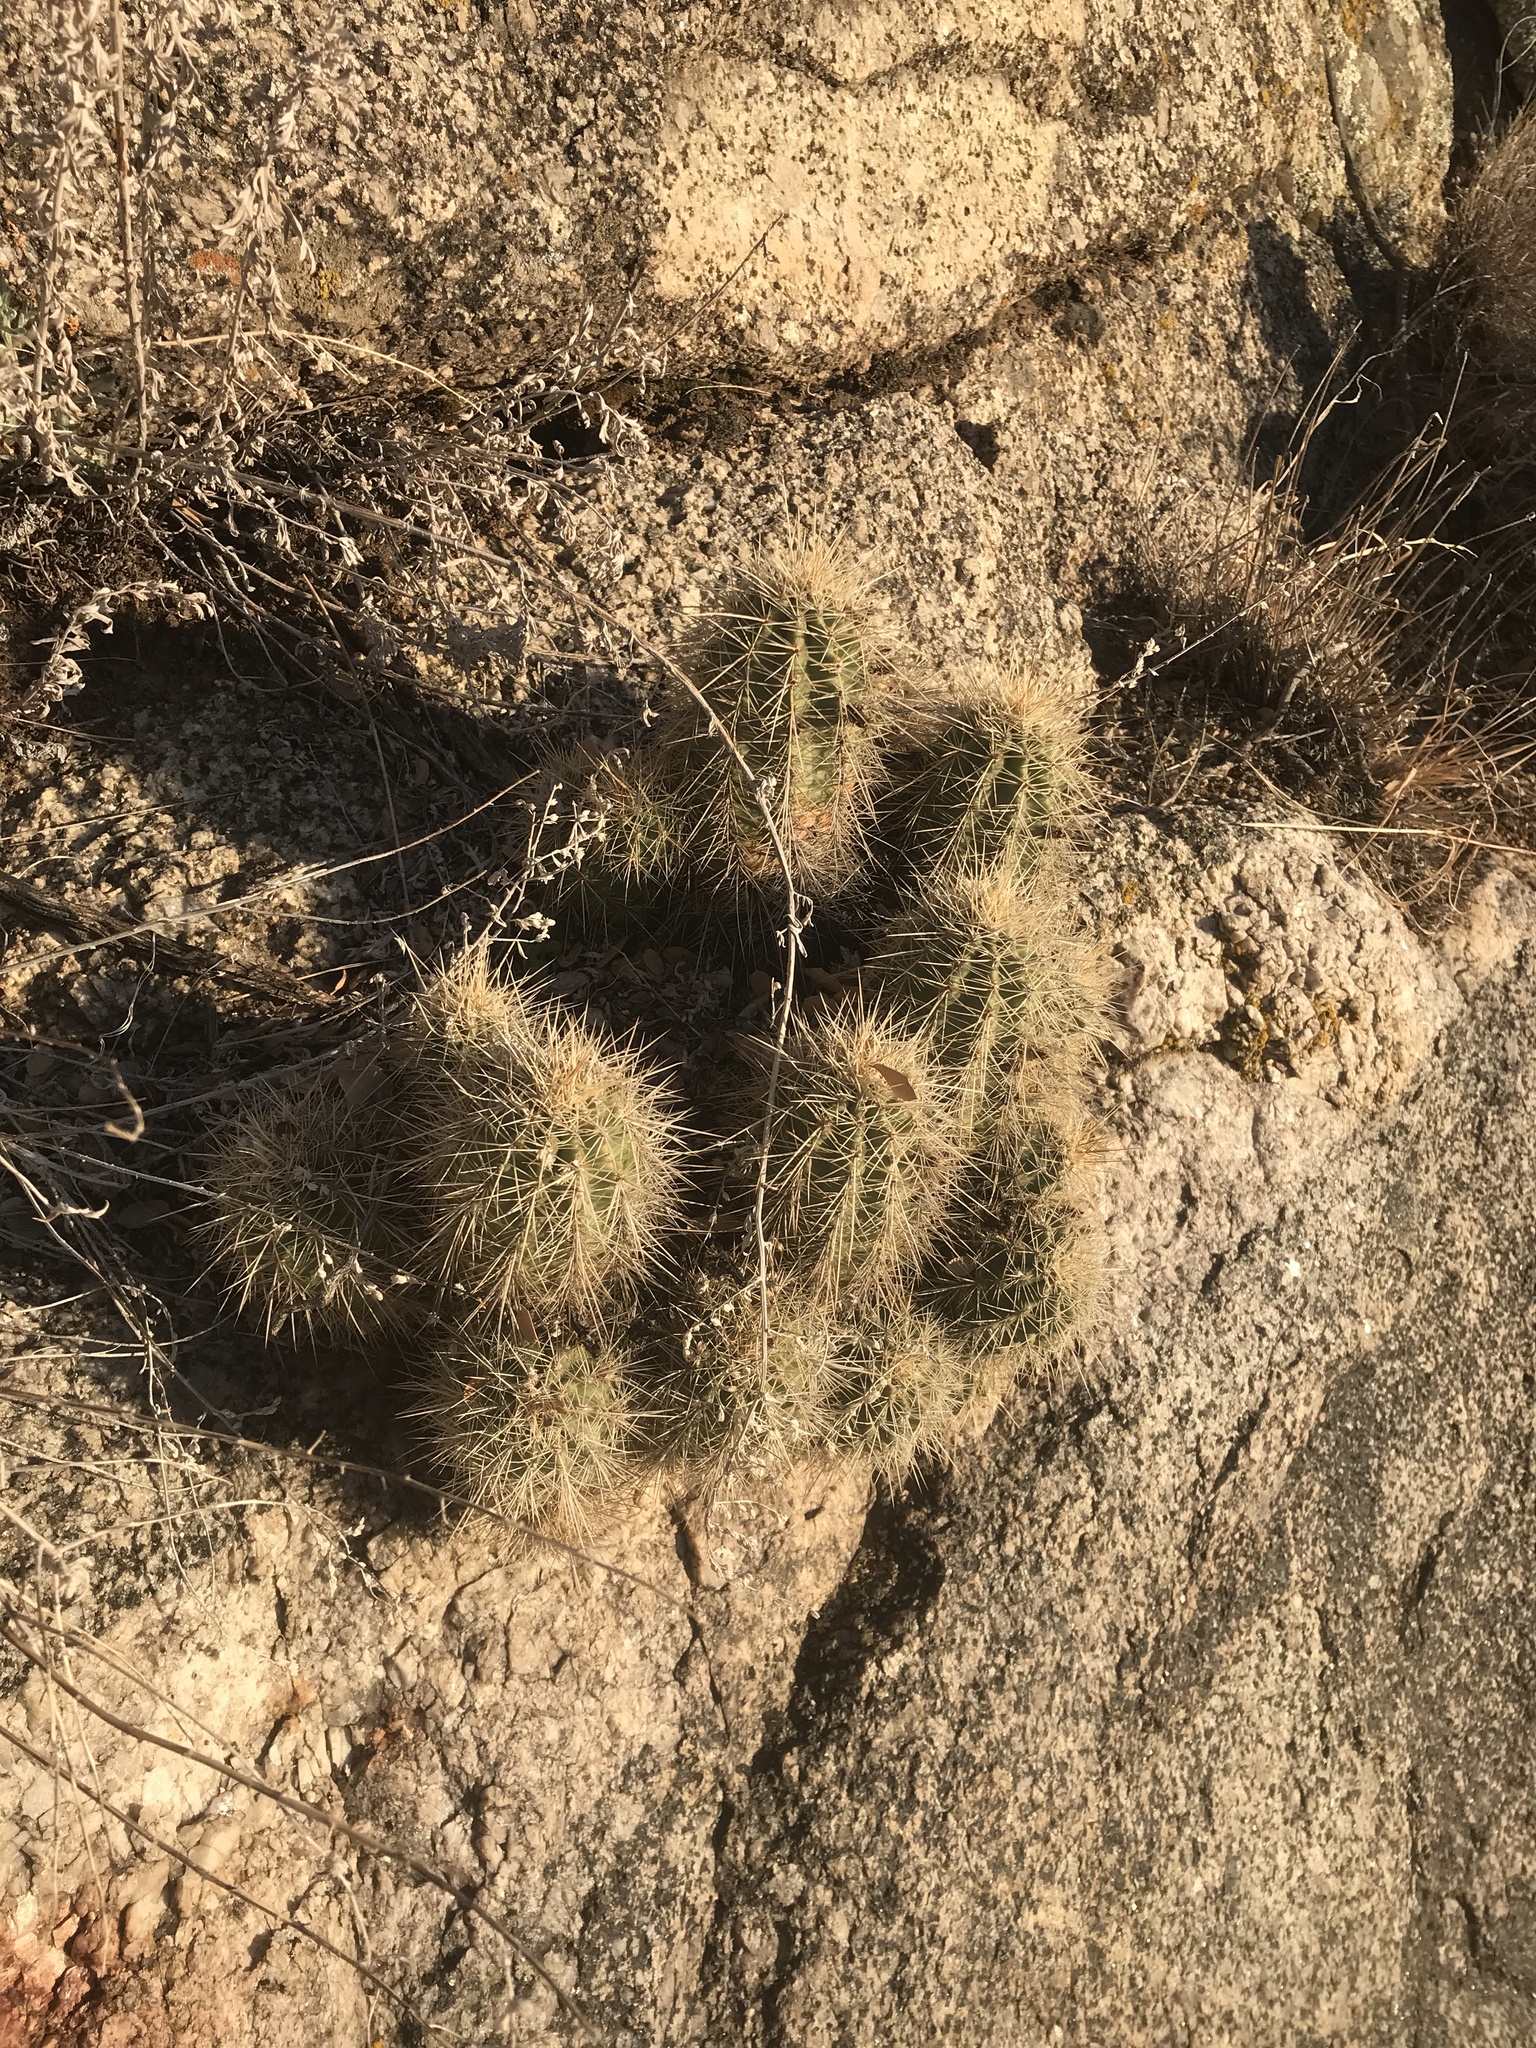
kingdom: Plantae
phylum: Tracheophyta
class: Magnoliopsida
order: Caryophyllales
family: Cactaceae
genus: Echinocereus
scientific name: Echinocereus coccineus
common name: Scarlet hedgehog cactus
